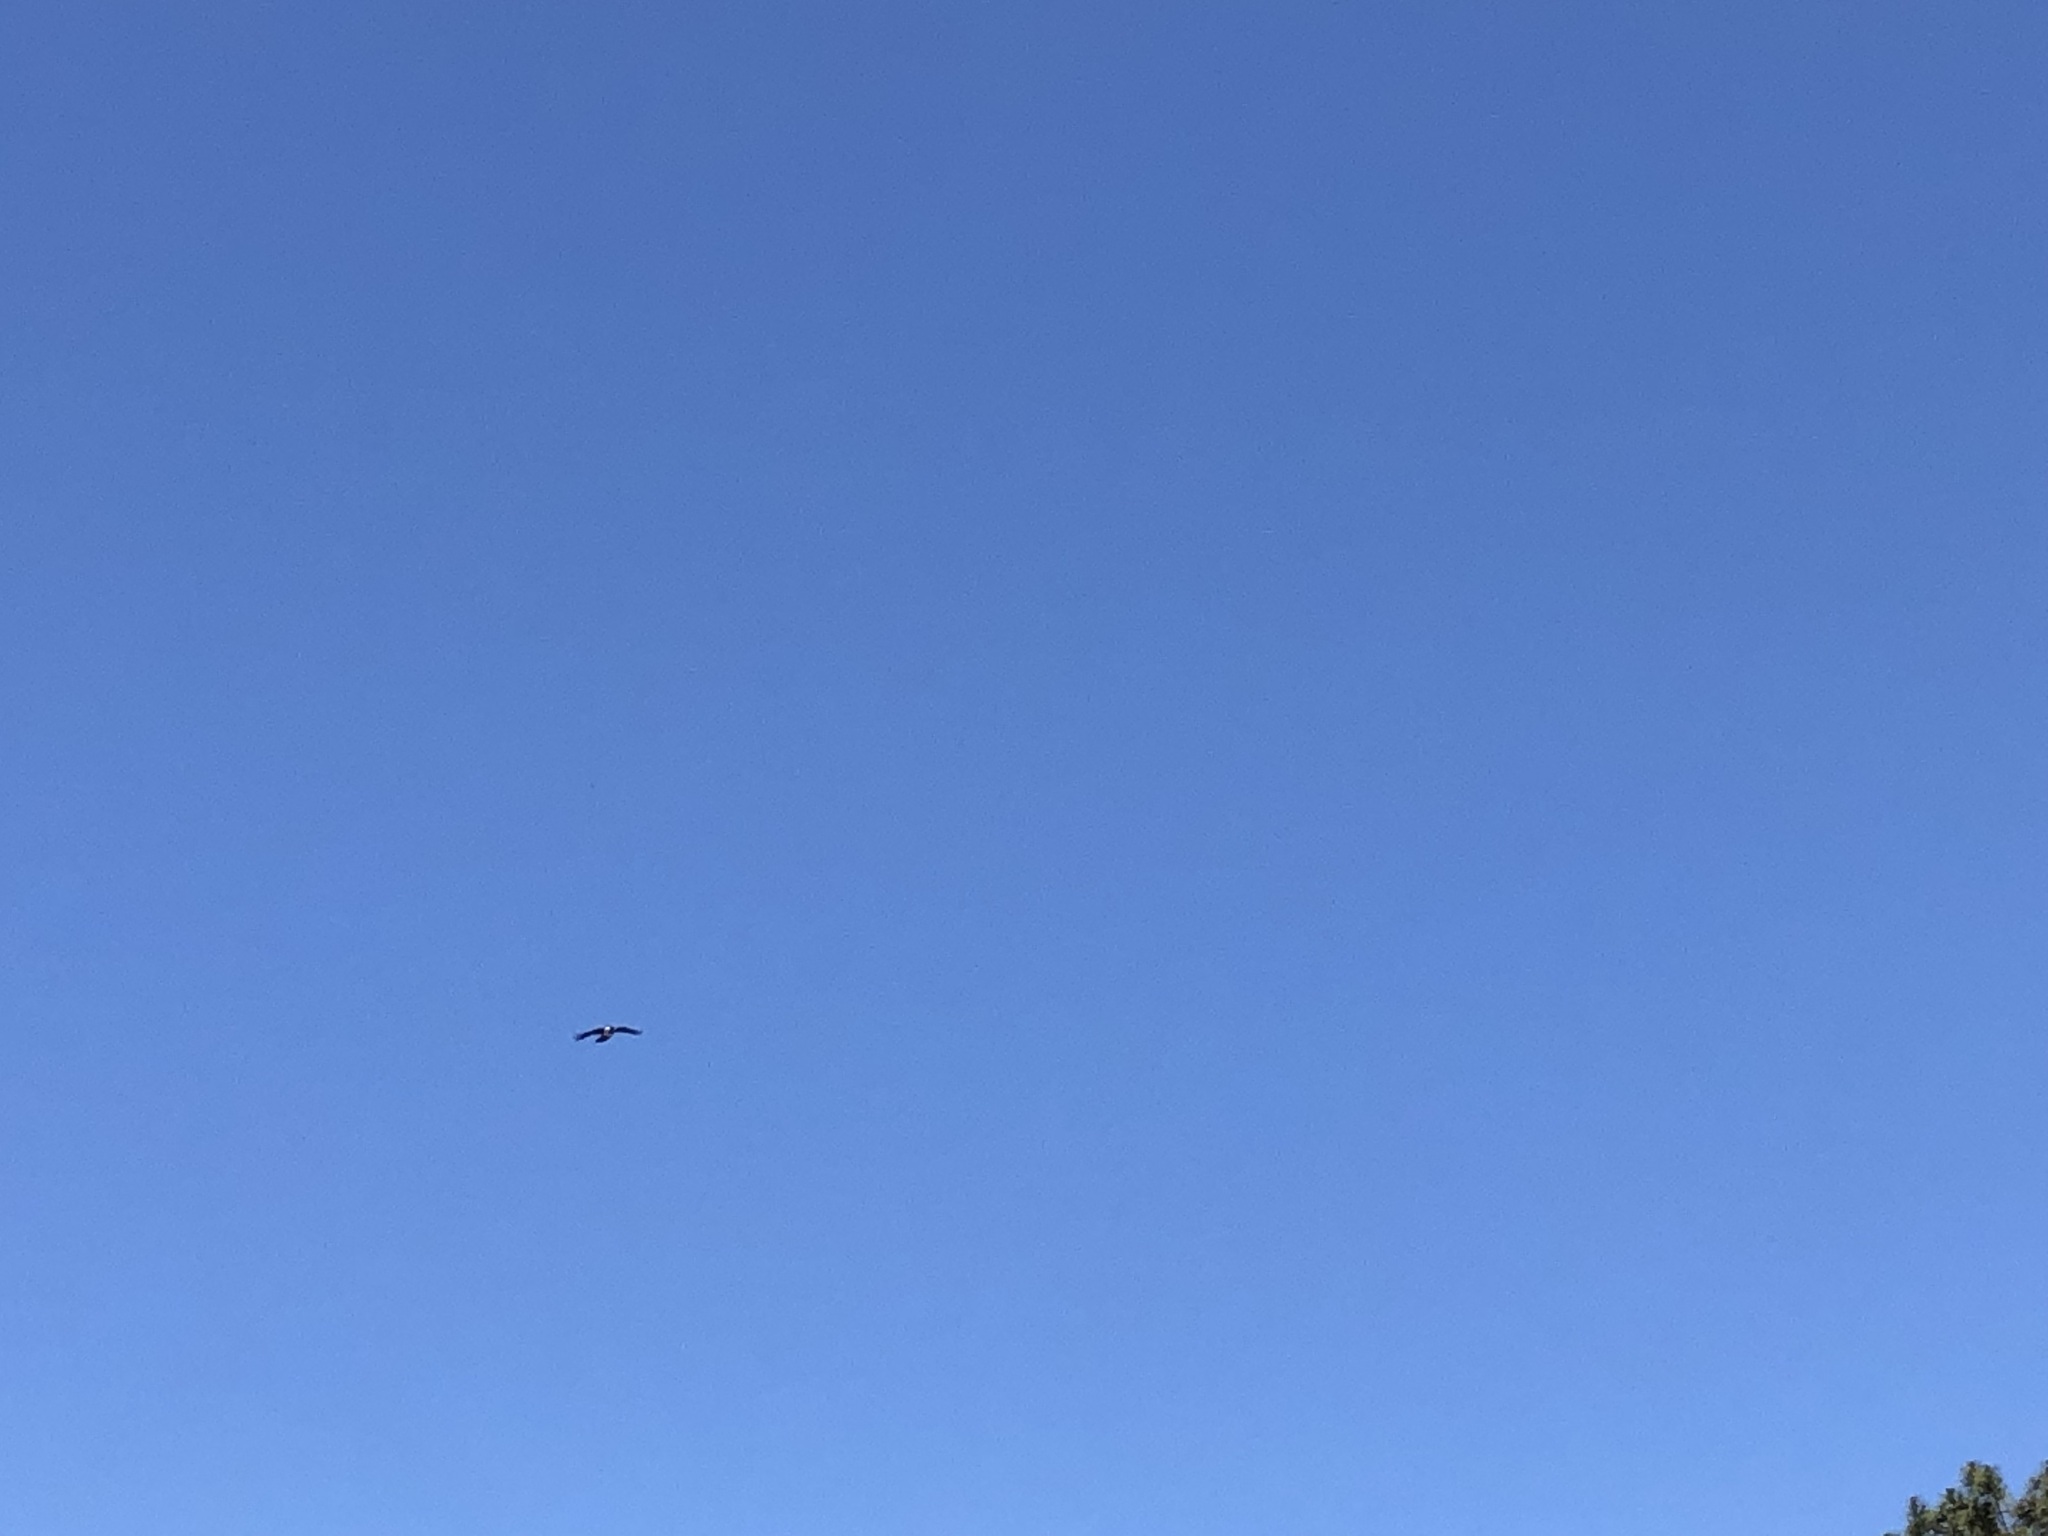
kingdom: Animalia
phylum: Chordata
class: Aves
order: Passeriformes
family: Corvidae
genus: Corvus
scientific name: Corvus albus
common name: Pied crow
